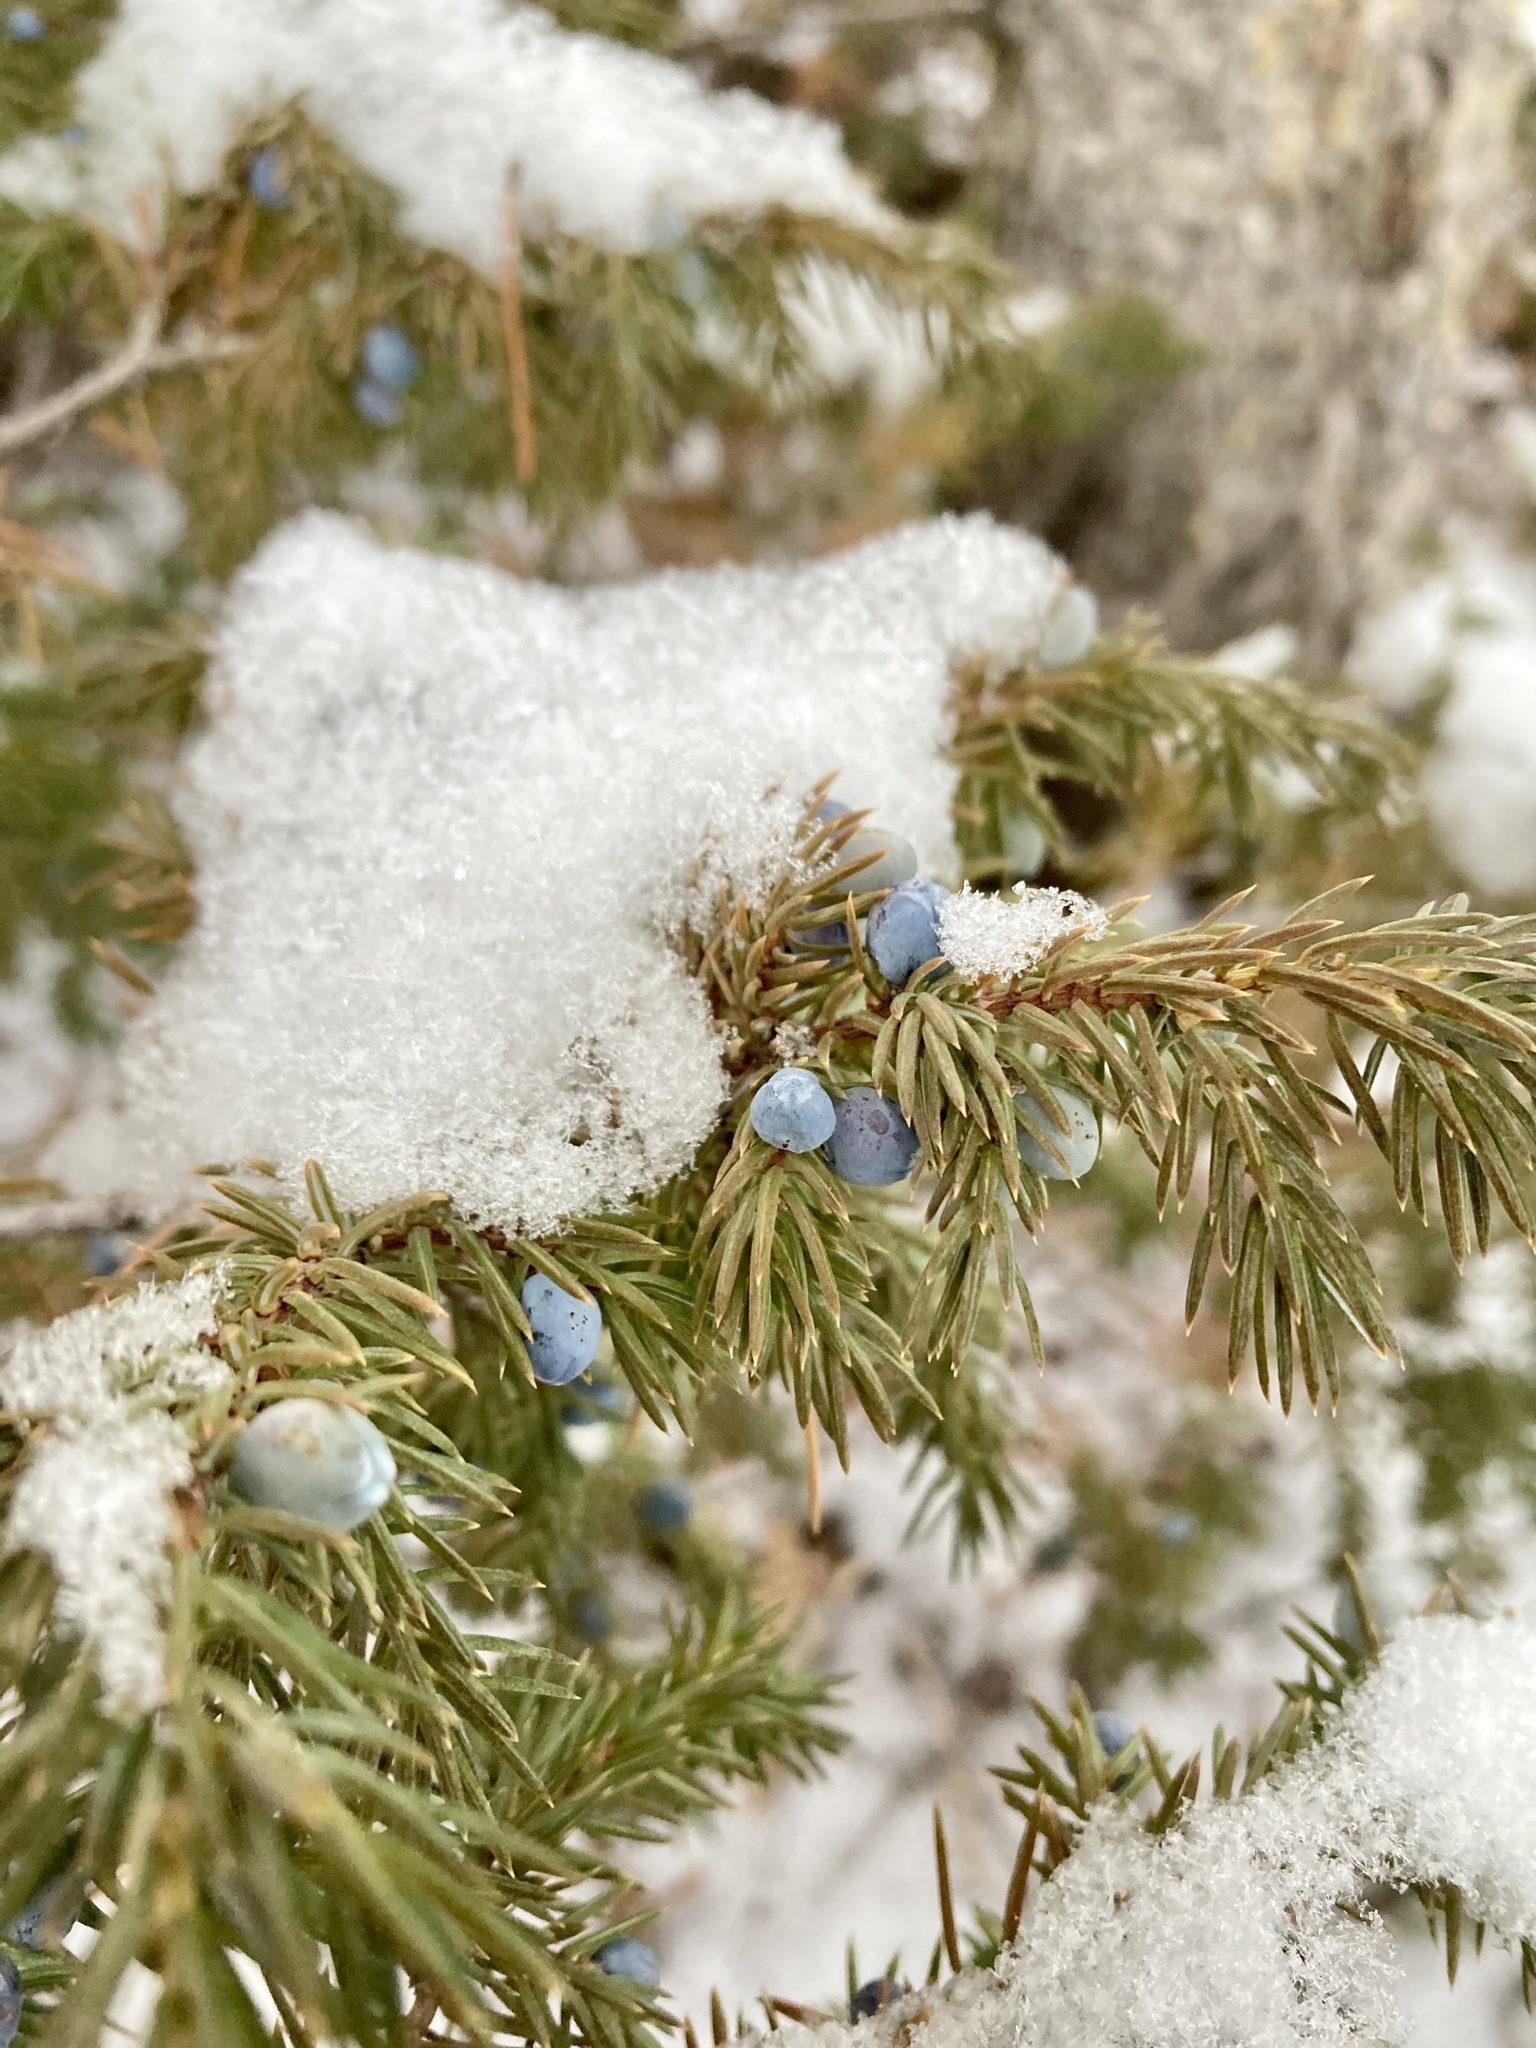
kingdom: Plantae
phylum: Tracheophyta
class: Pinopsida
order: Pinales
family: Cupressaceae
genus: Juniperus
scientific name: Juniperus communis
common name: Common juniper
